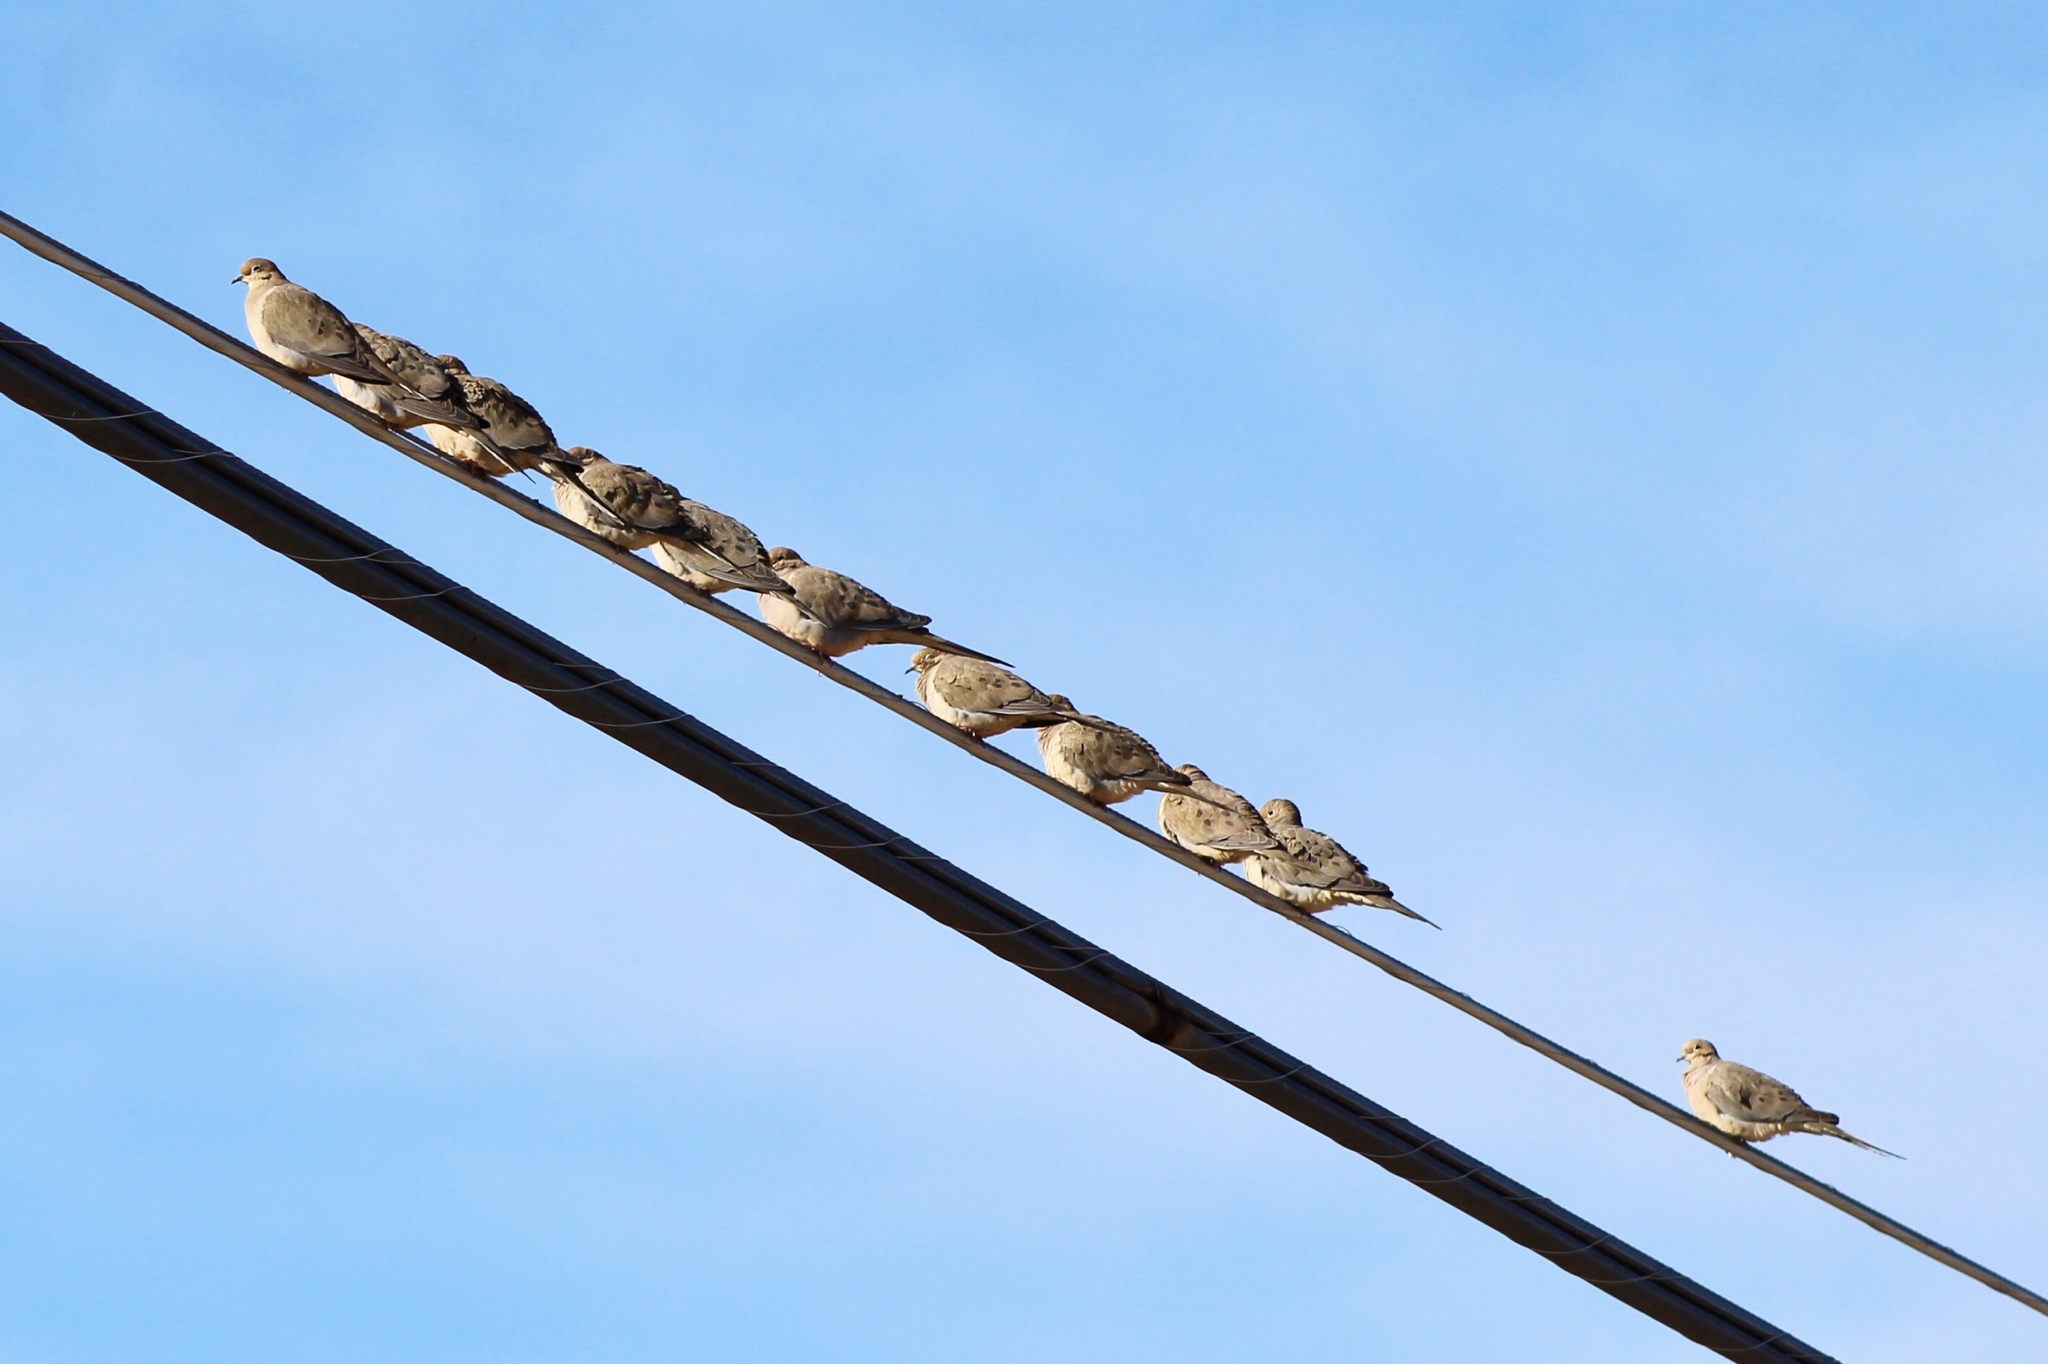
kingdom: Animalia
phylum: Chordata
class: Aves
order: Columbiformes
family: Columbidae
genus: Zenaida
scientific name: Zenaida macroura
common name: Mourning dove
